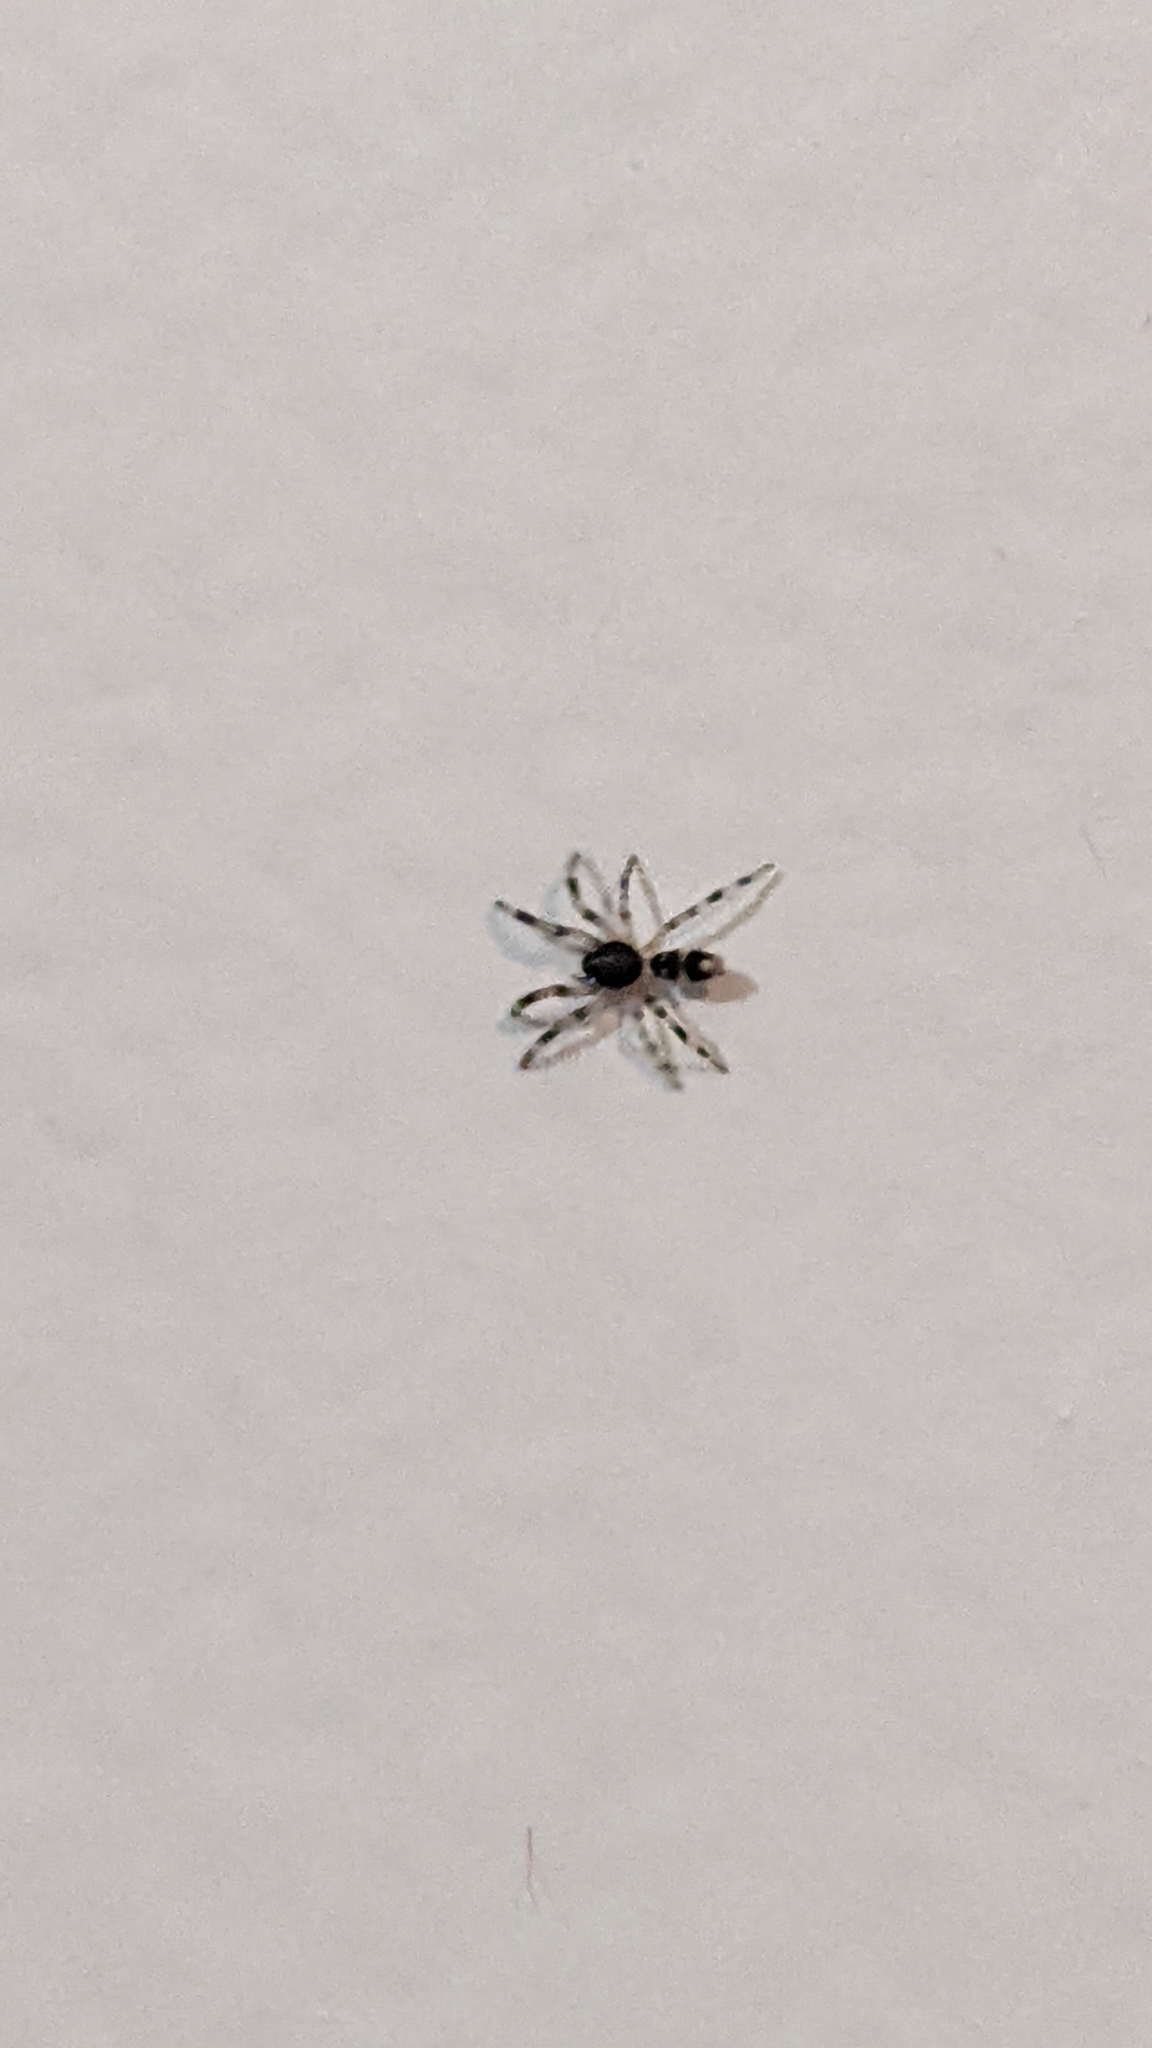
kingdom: Animalia
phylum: Arthropoda
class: Arachnida
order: Araneae
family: Lamponidae
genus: Lampona
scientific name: Lampona murina
